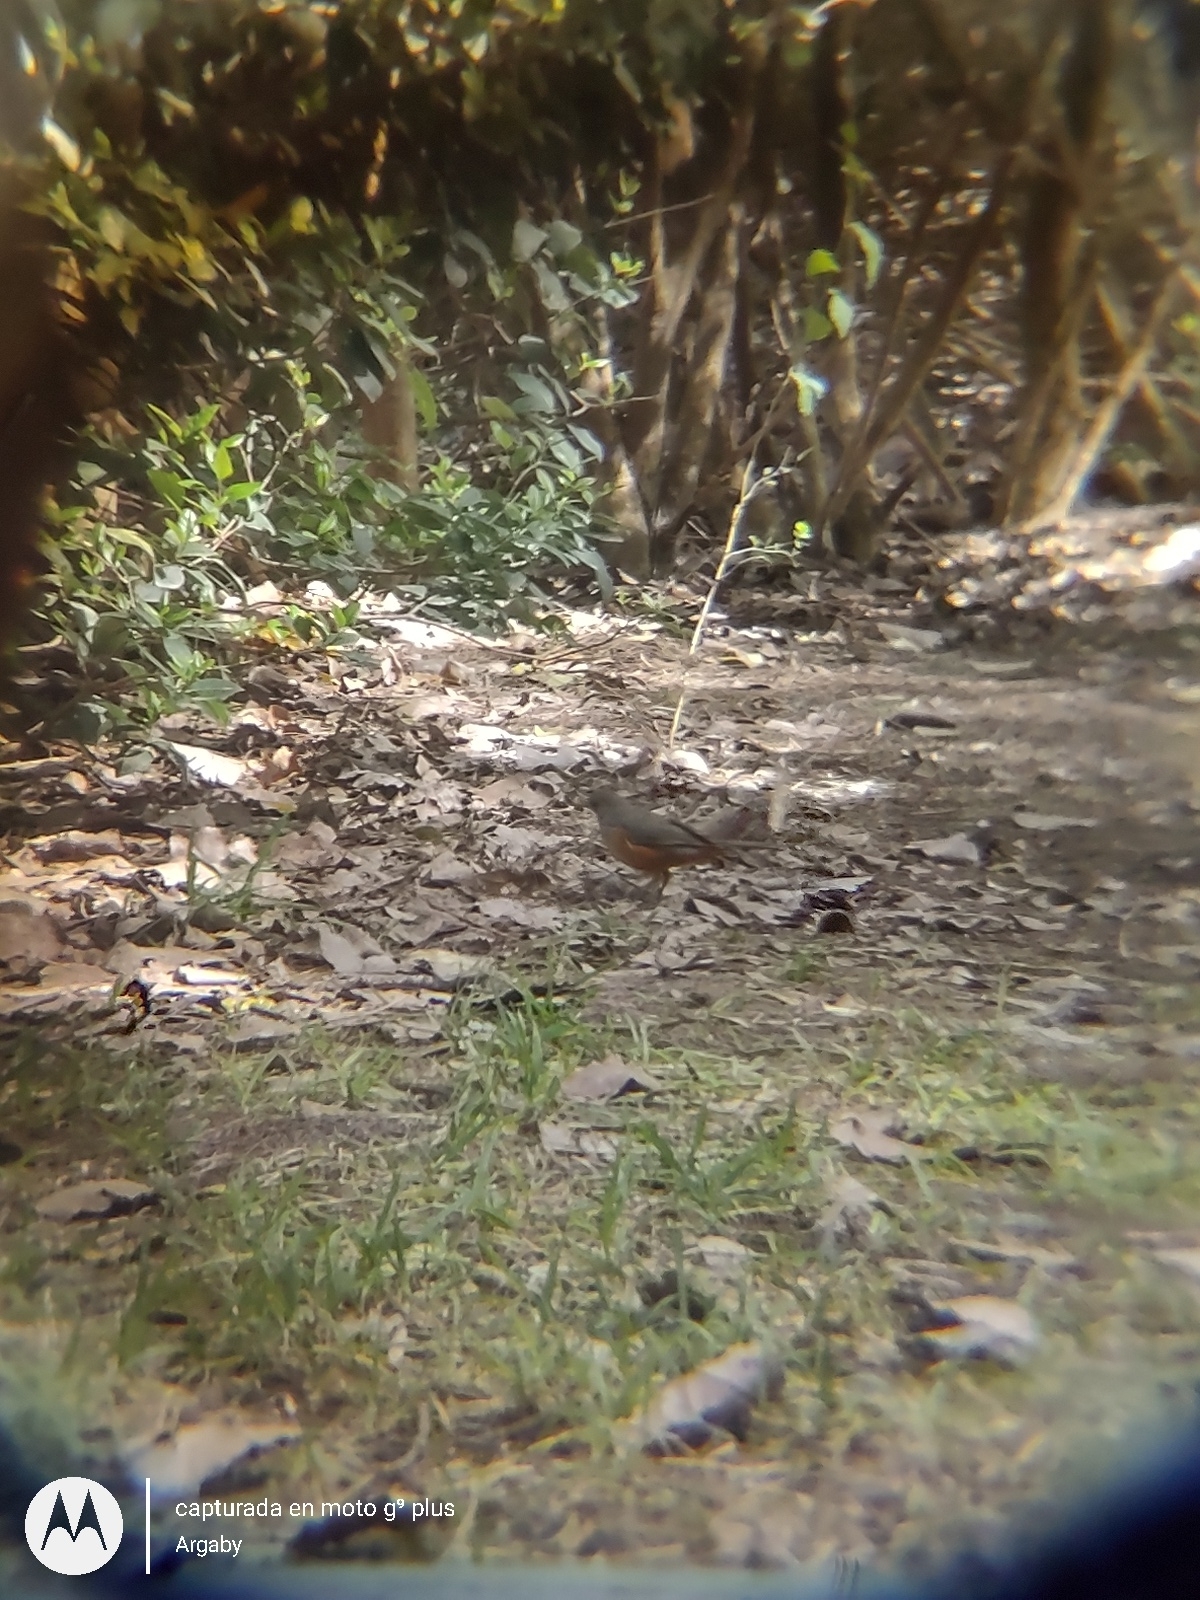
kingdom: Animalia
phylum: Chordata
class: Aves
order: Passeriformes
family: Turdidae
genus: Turdus
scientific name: Turdus rufiventris
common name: Rufous-bellied thrush
